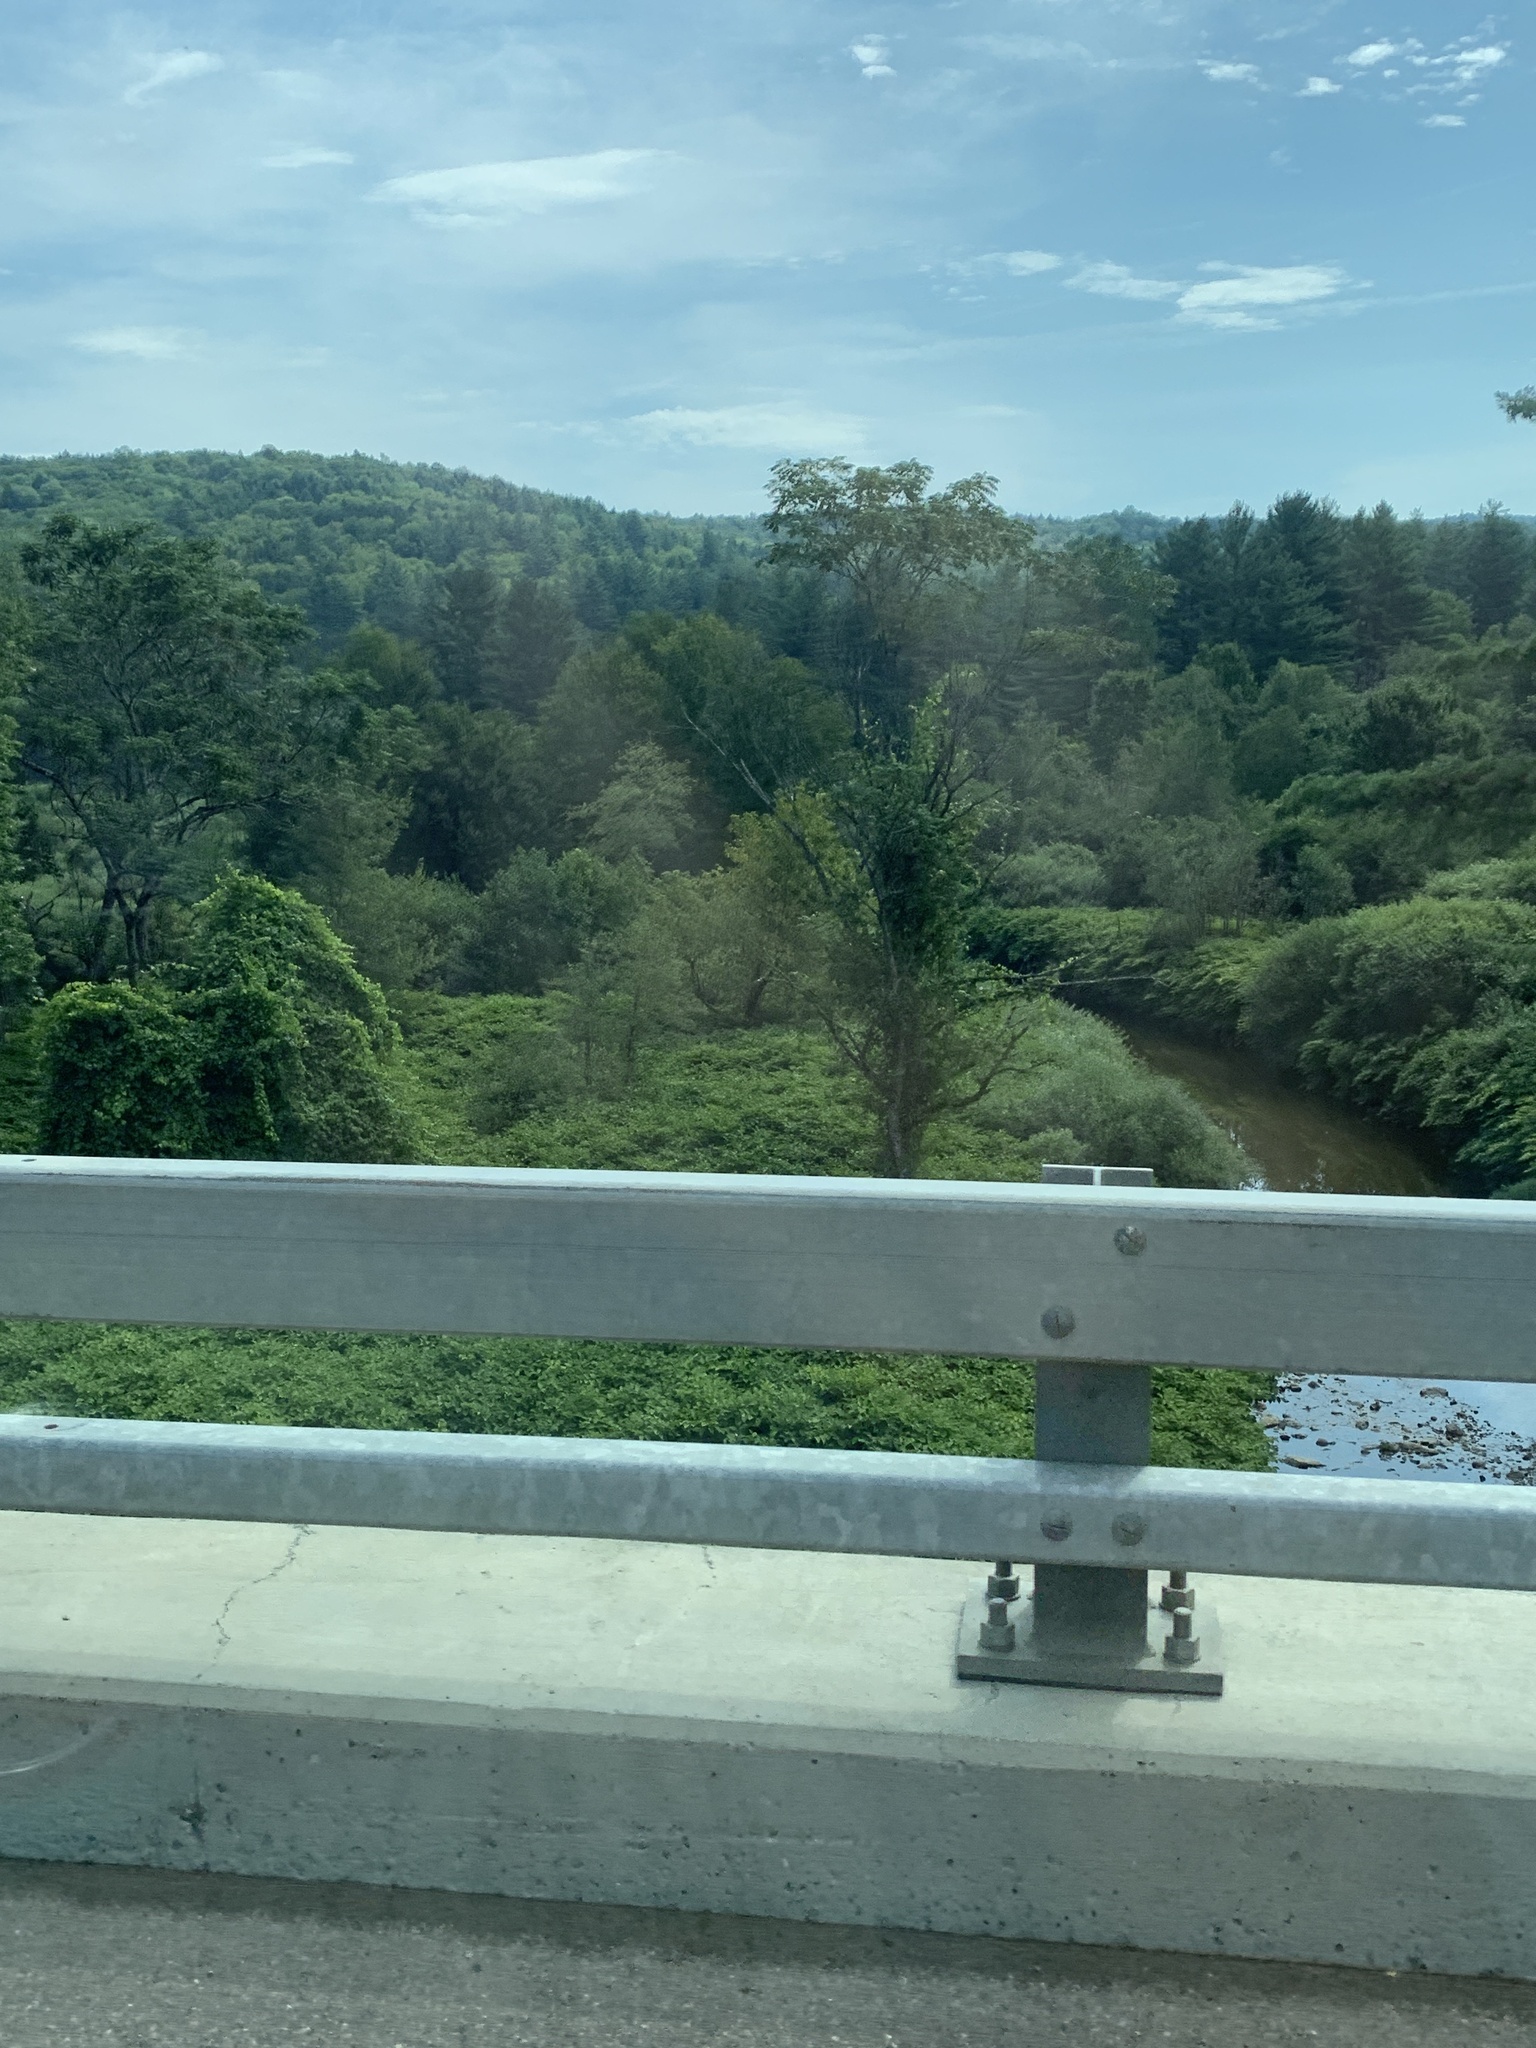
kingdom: Plantae
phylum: Tracheophyta
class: Magnoliopsida
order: Caryophyllales
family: Polygonaceae
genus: Reynoutria
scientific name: Reynoutria japonica
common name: Japanese knotweed
